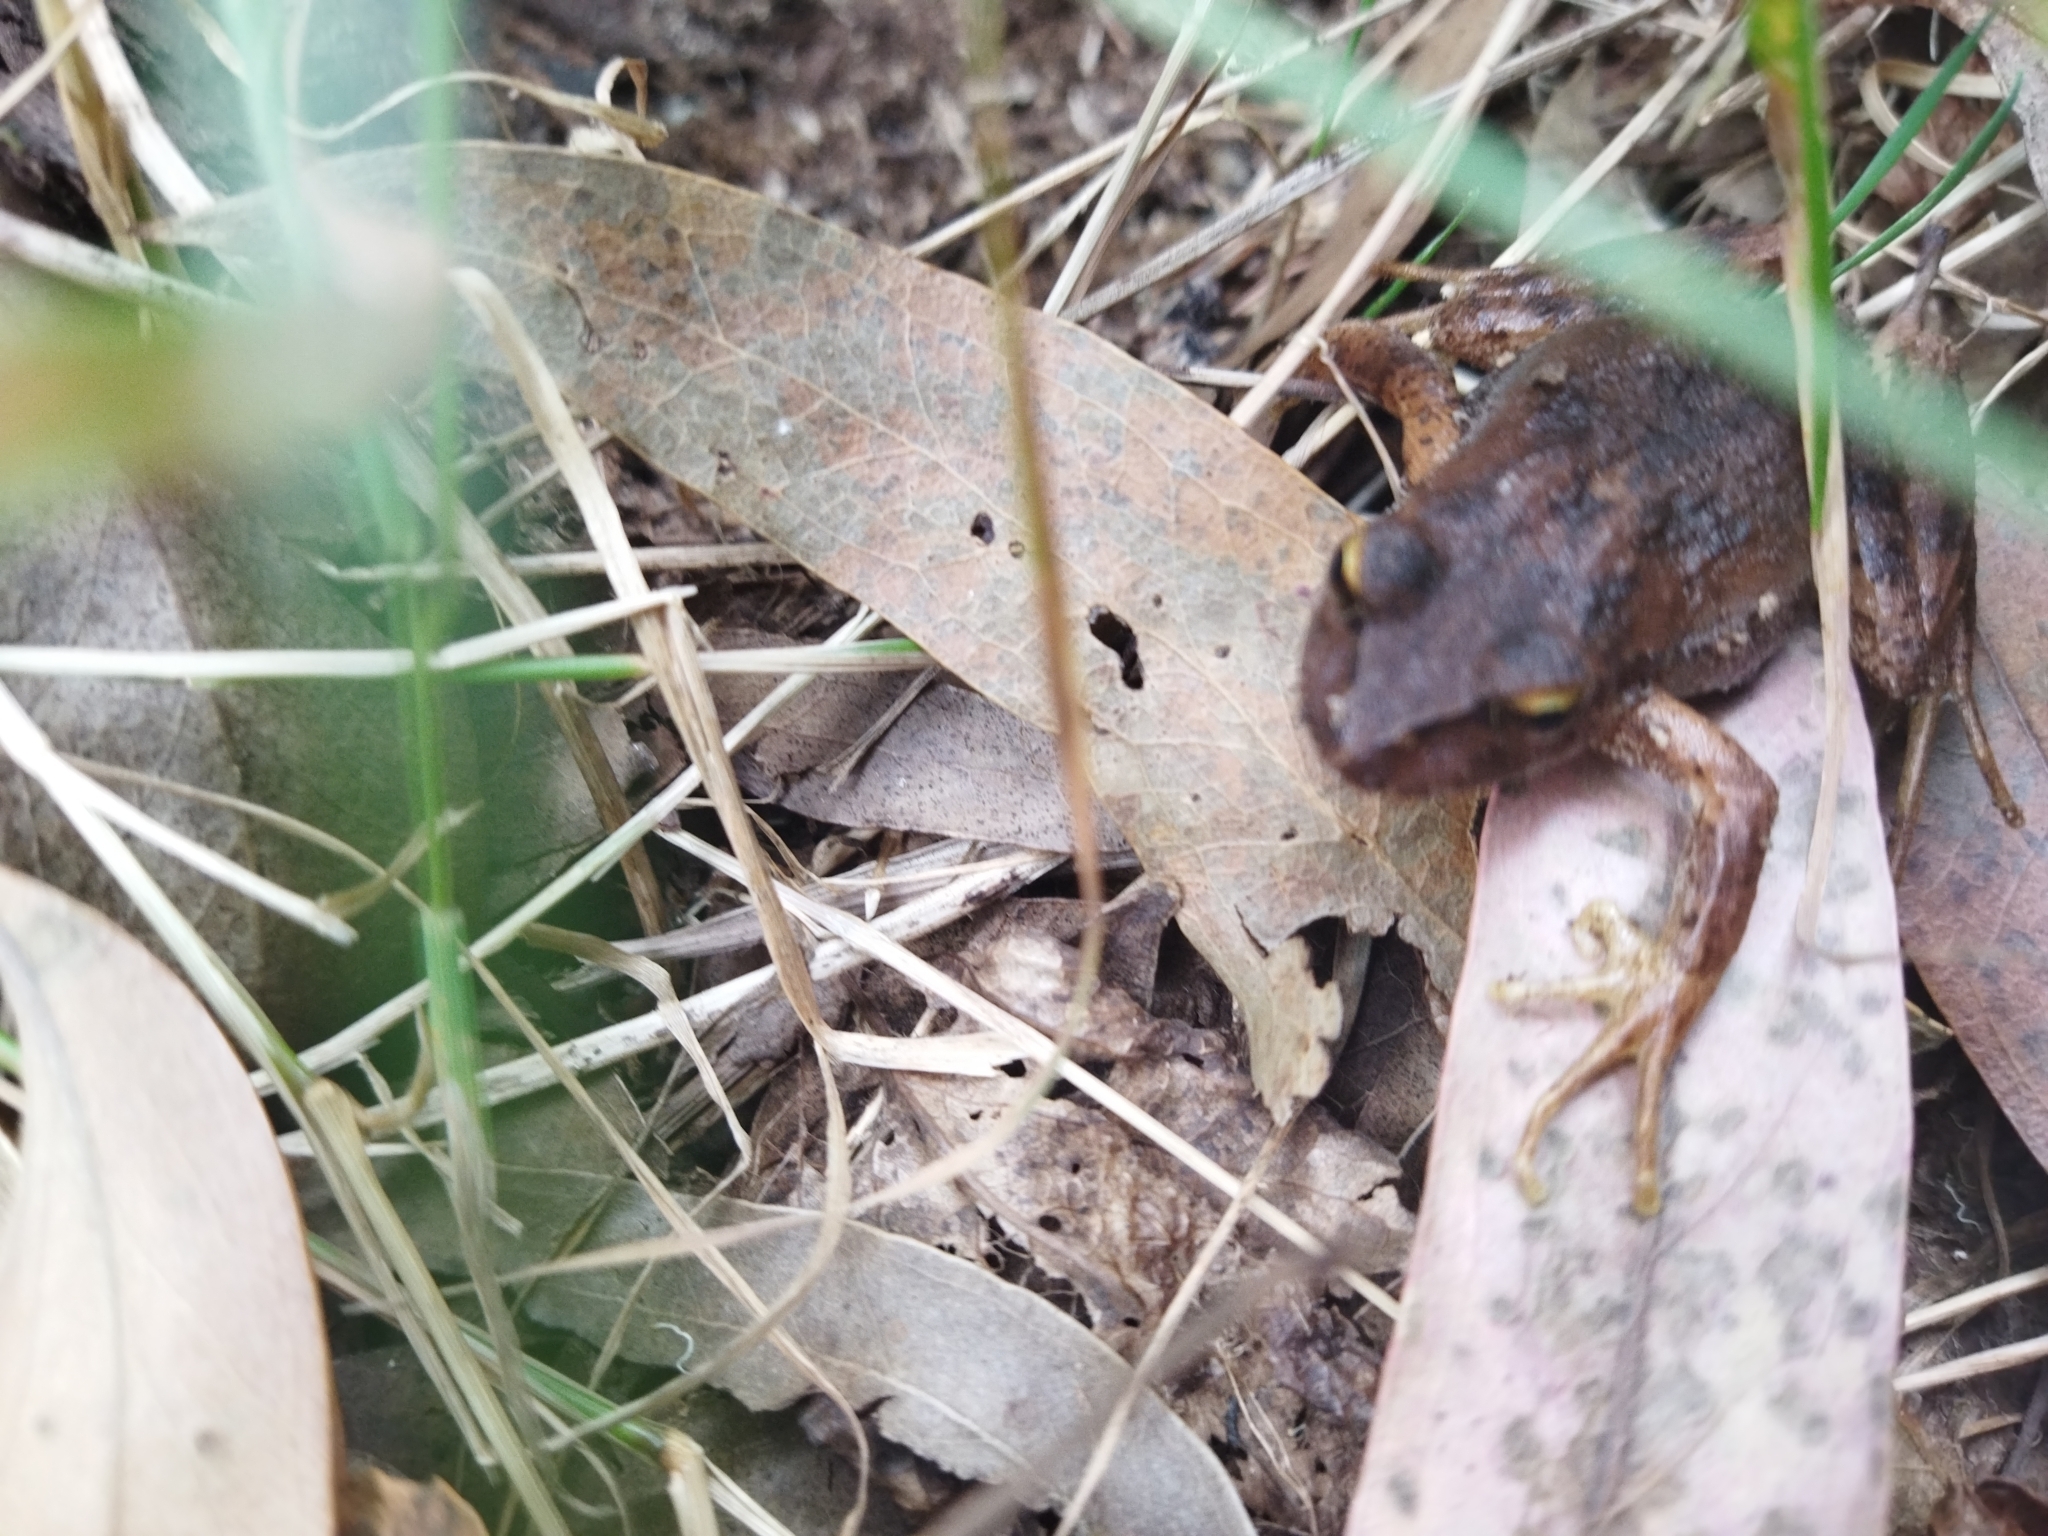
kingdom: Animalia
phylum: Chordata
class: Amphibia
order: Anura
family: Batrachylidae
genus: Batrachyla
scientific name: Batrachyla taeniata
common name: Banded wood frog
